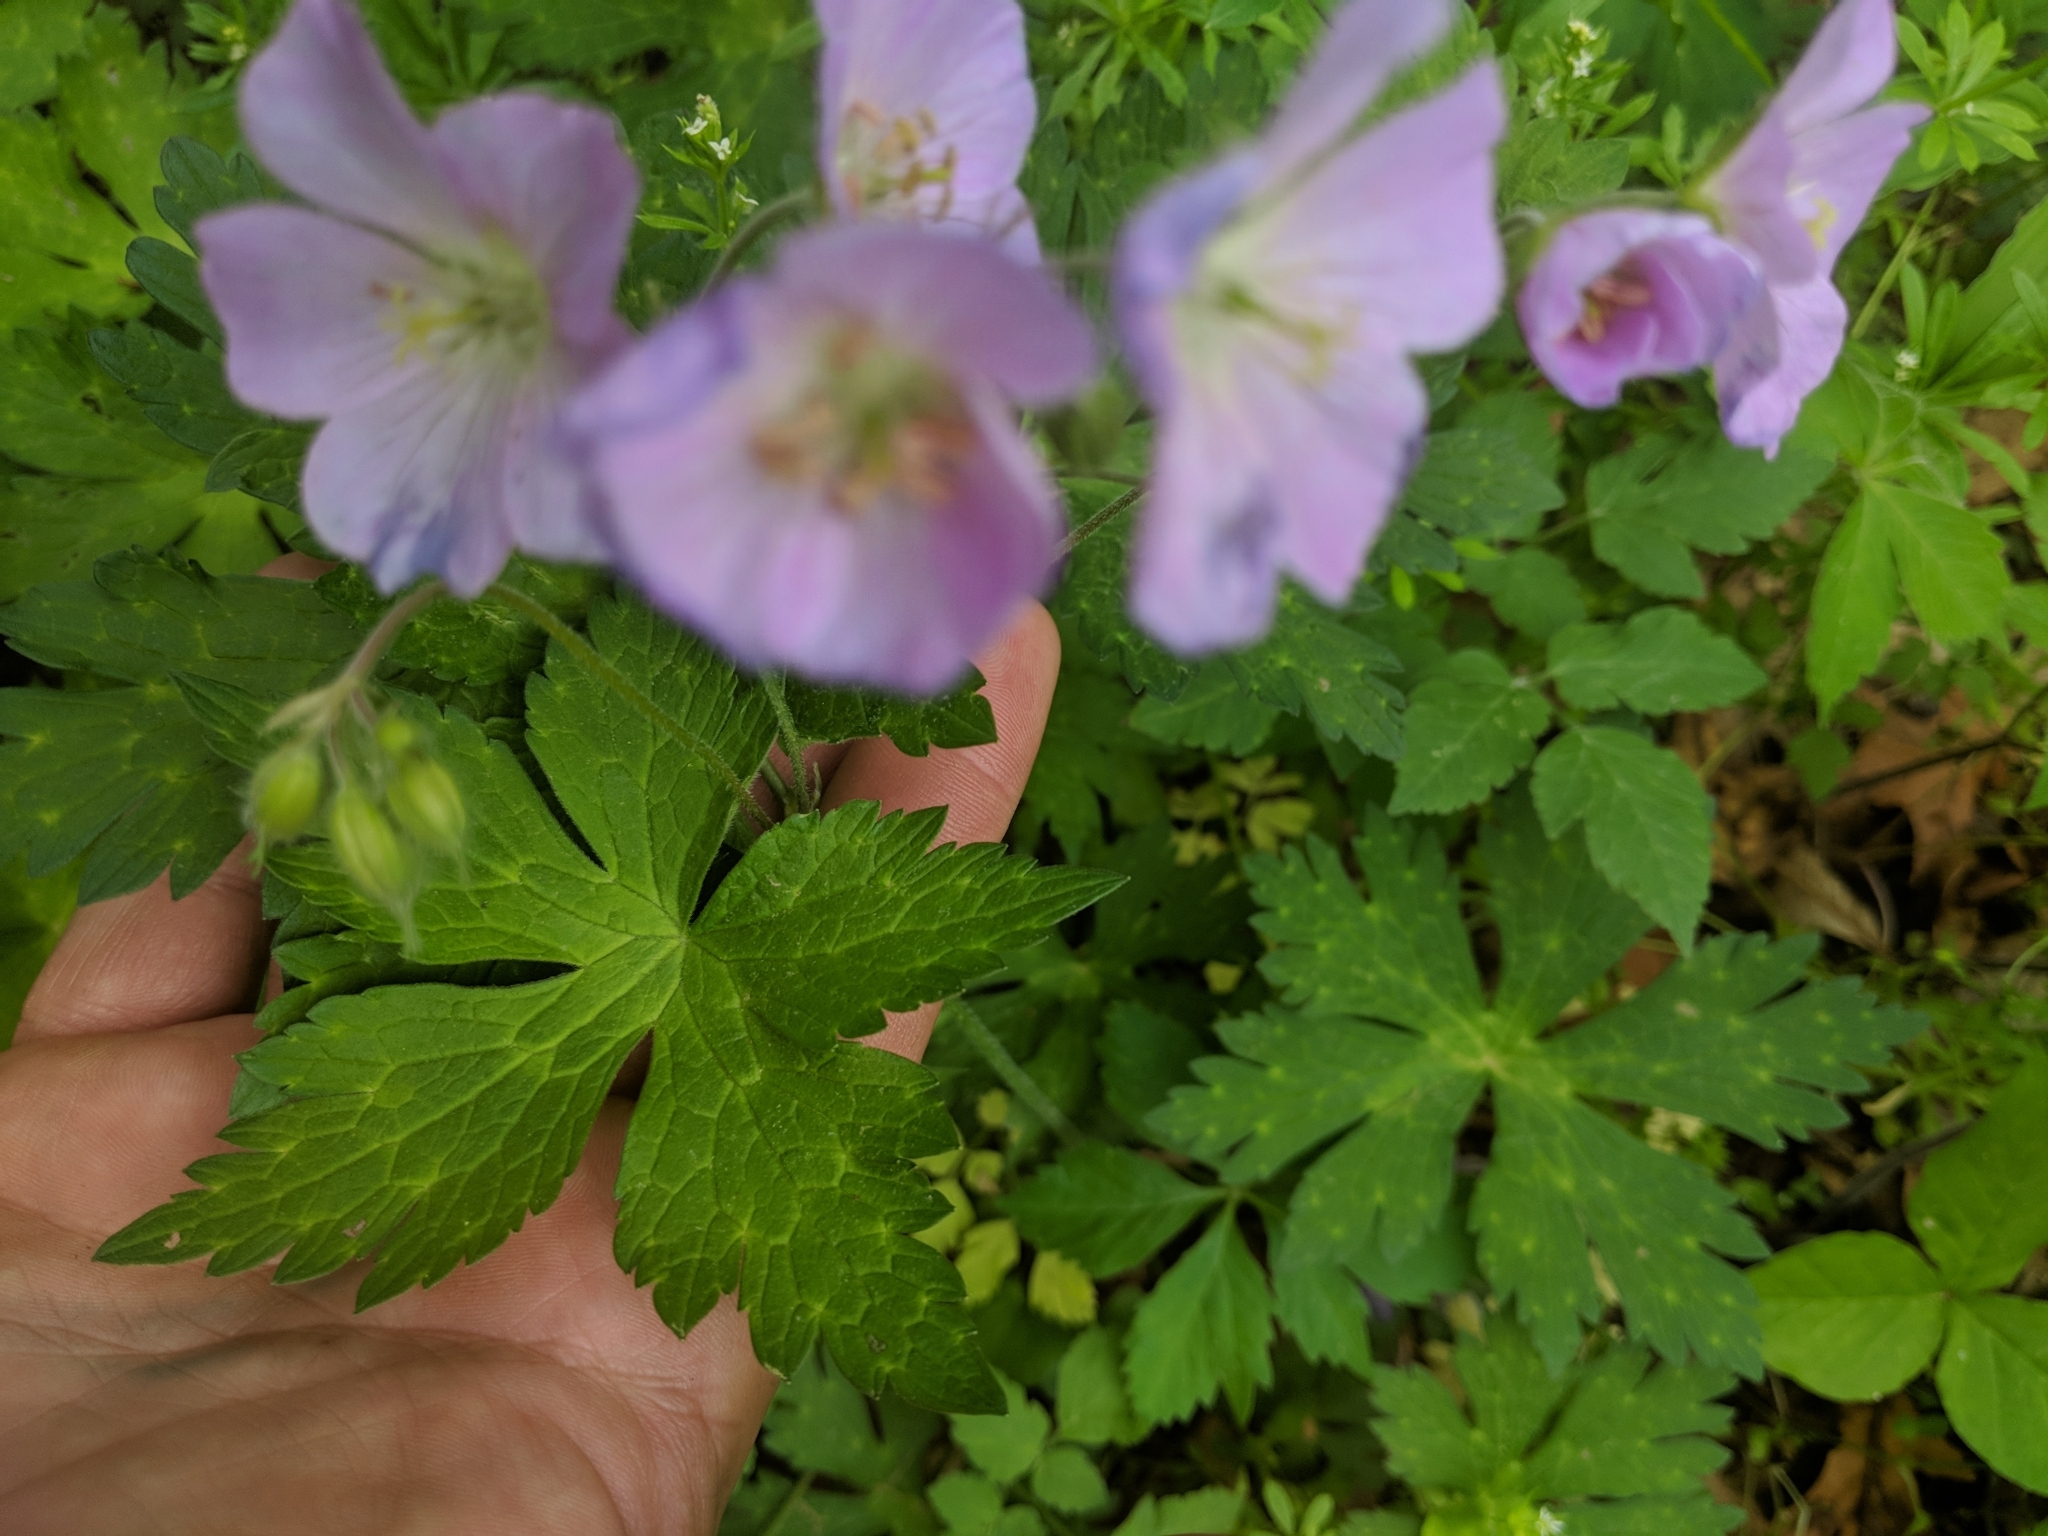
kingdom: Plantae
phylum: Tracheophyta
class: Magnoliopsida
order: Geraniales
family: Geraniaceae
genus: Geranium
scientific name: Geranium maculatum
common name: Spotted geranium
